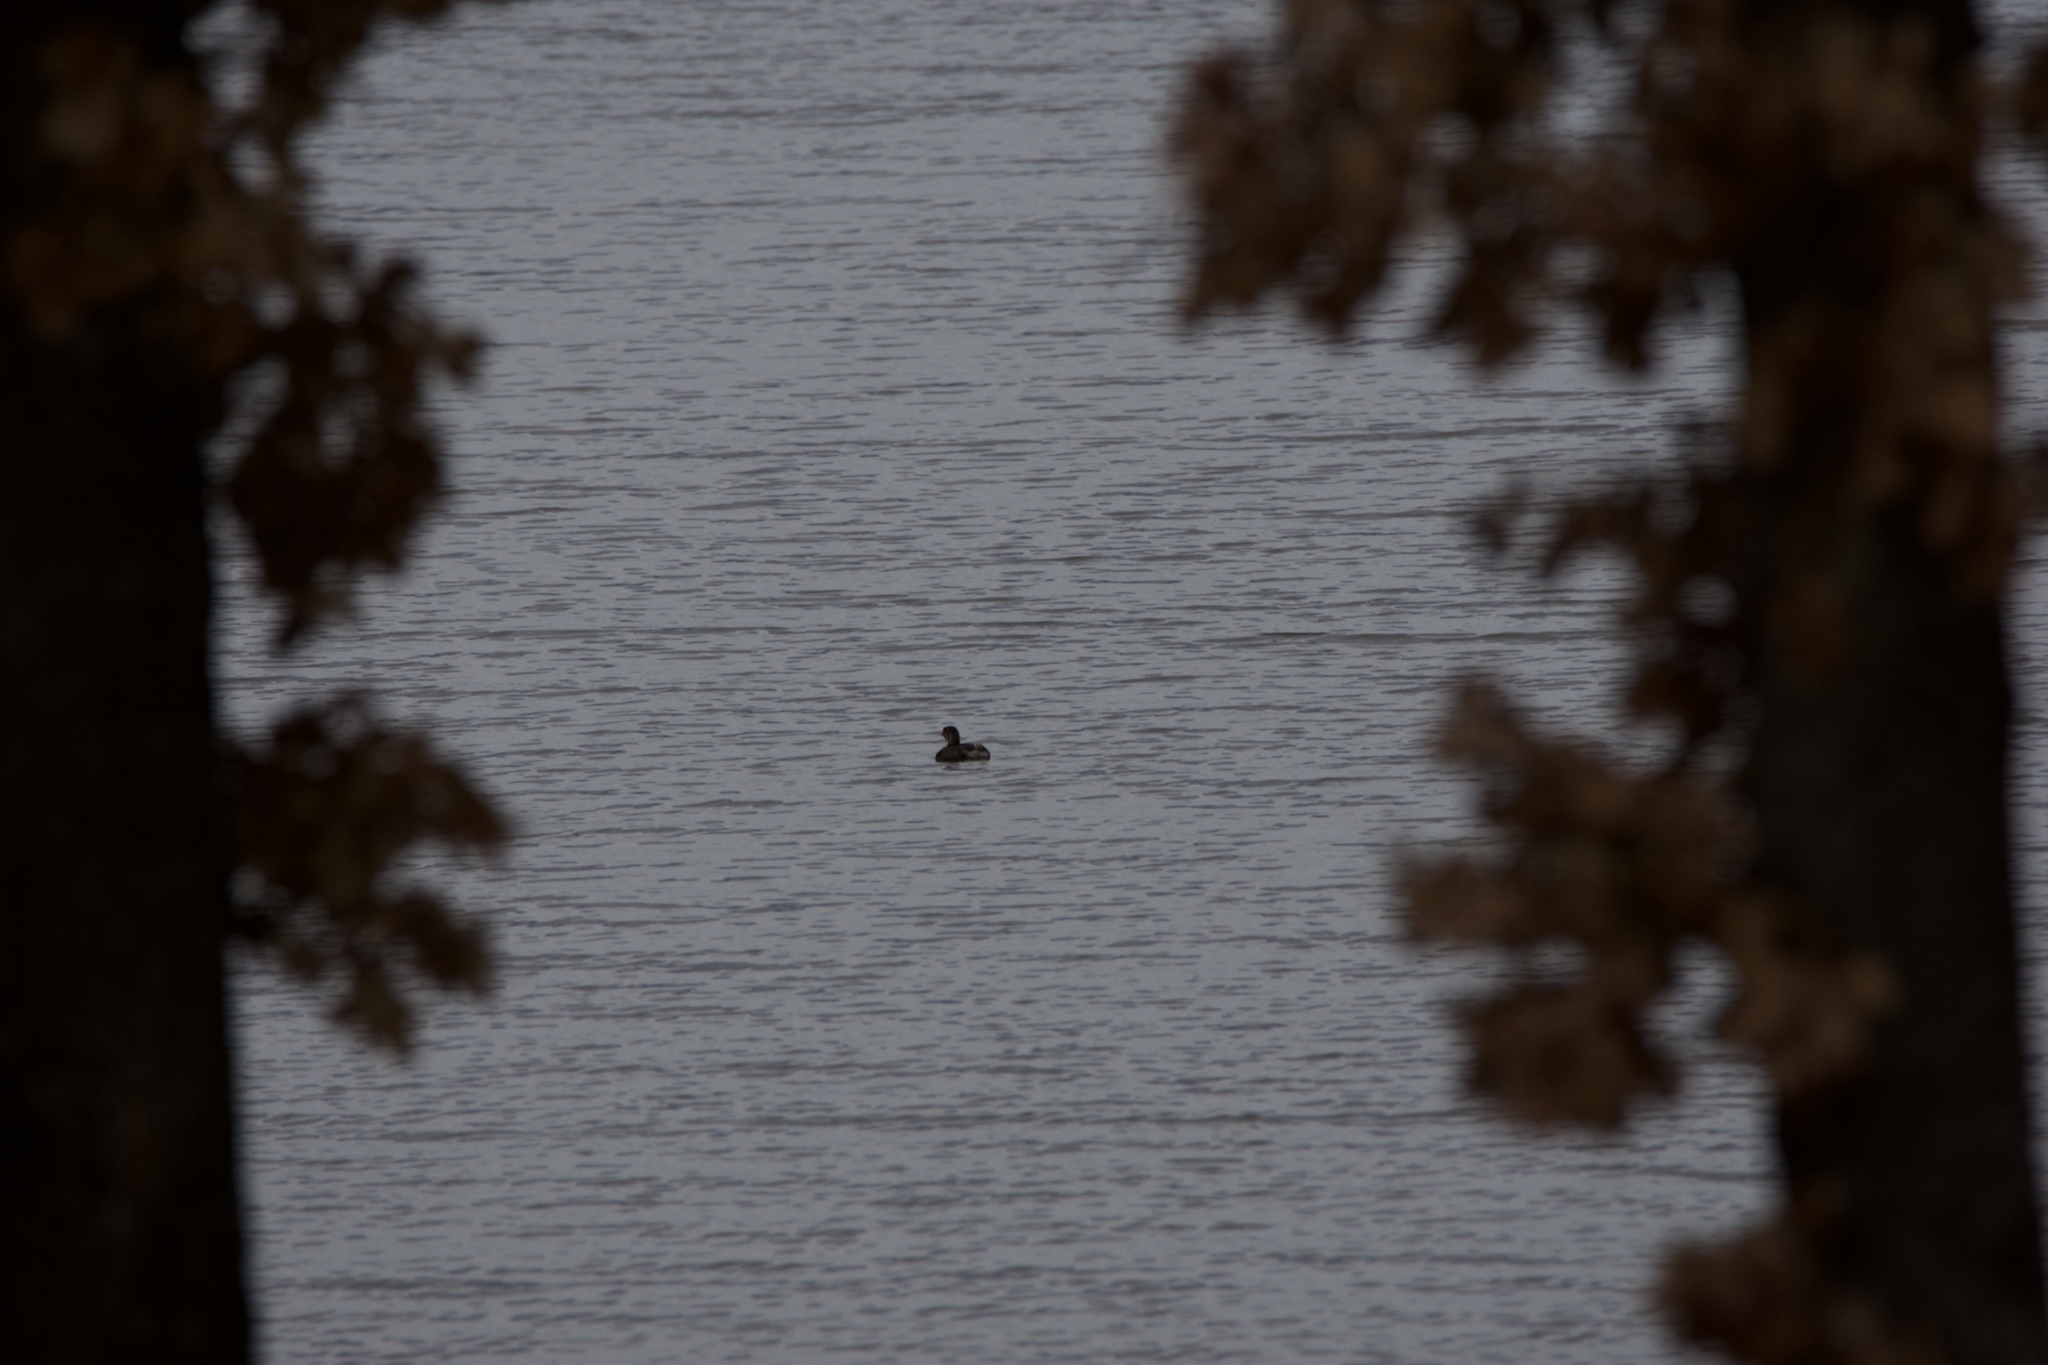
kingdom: Animalia
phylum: Chordata
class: Aves
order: Podicipediformes
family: Podicipedidae
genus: Podilymbus
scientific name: Podilymbus podiceps
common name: Pied-billed grebe
